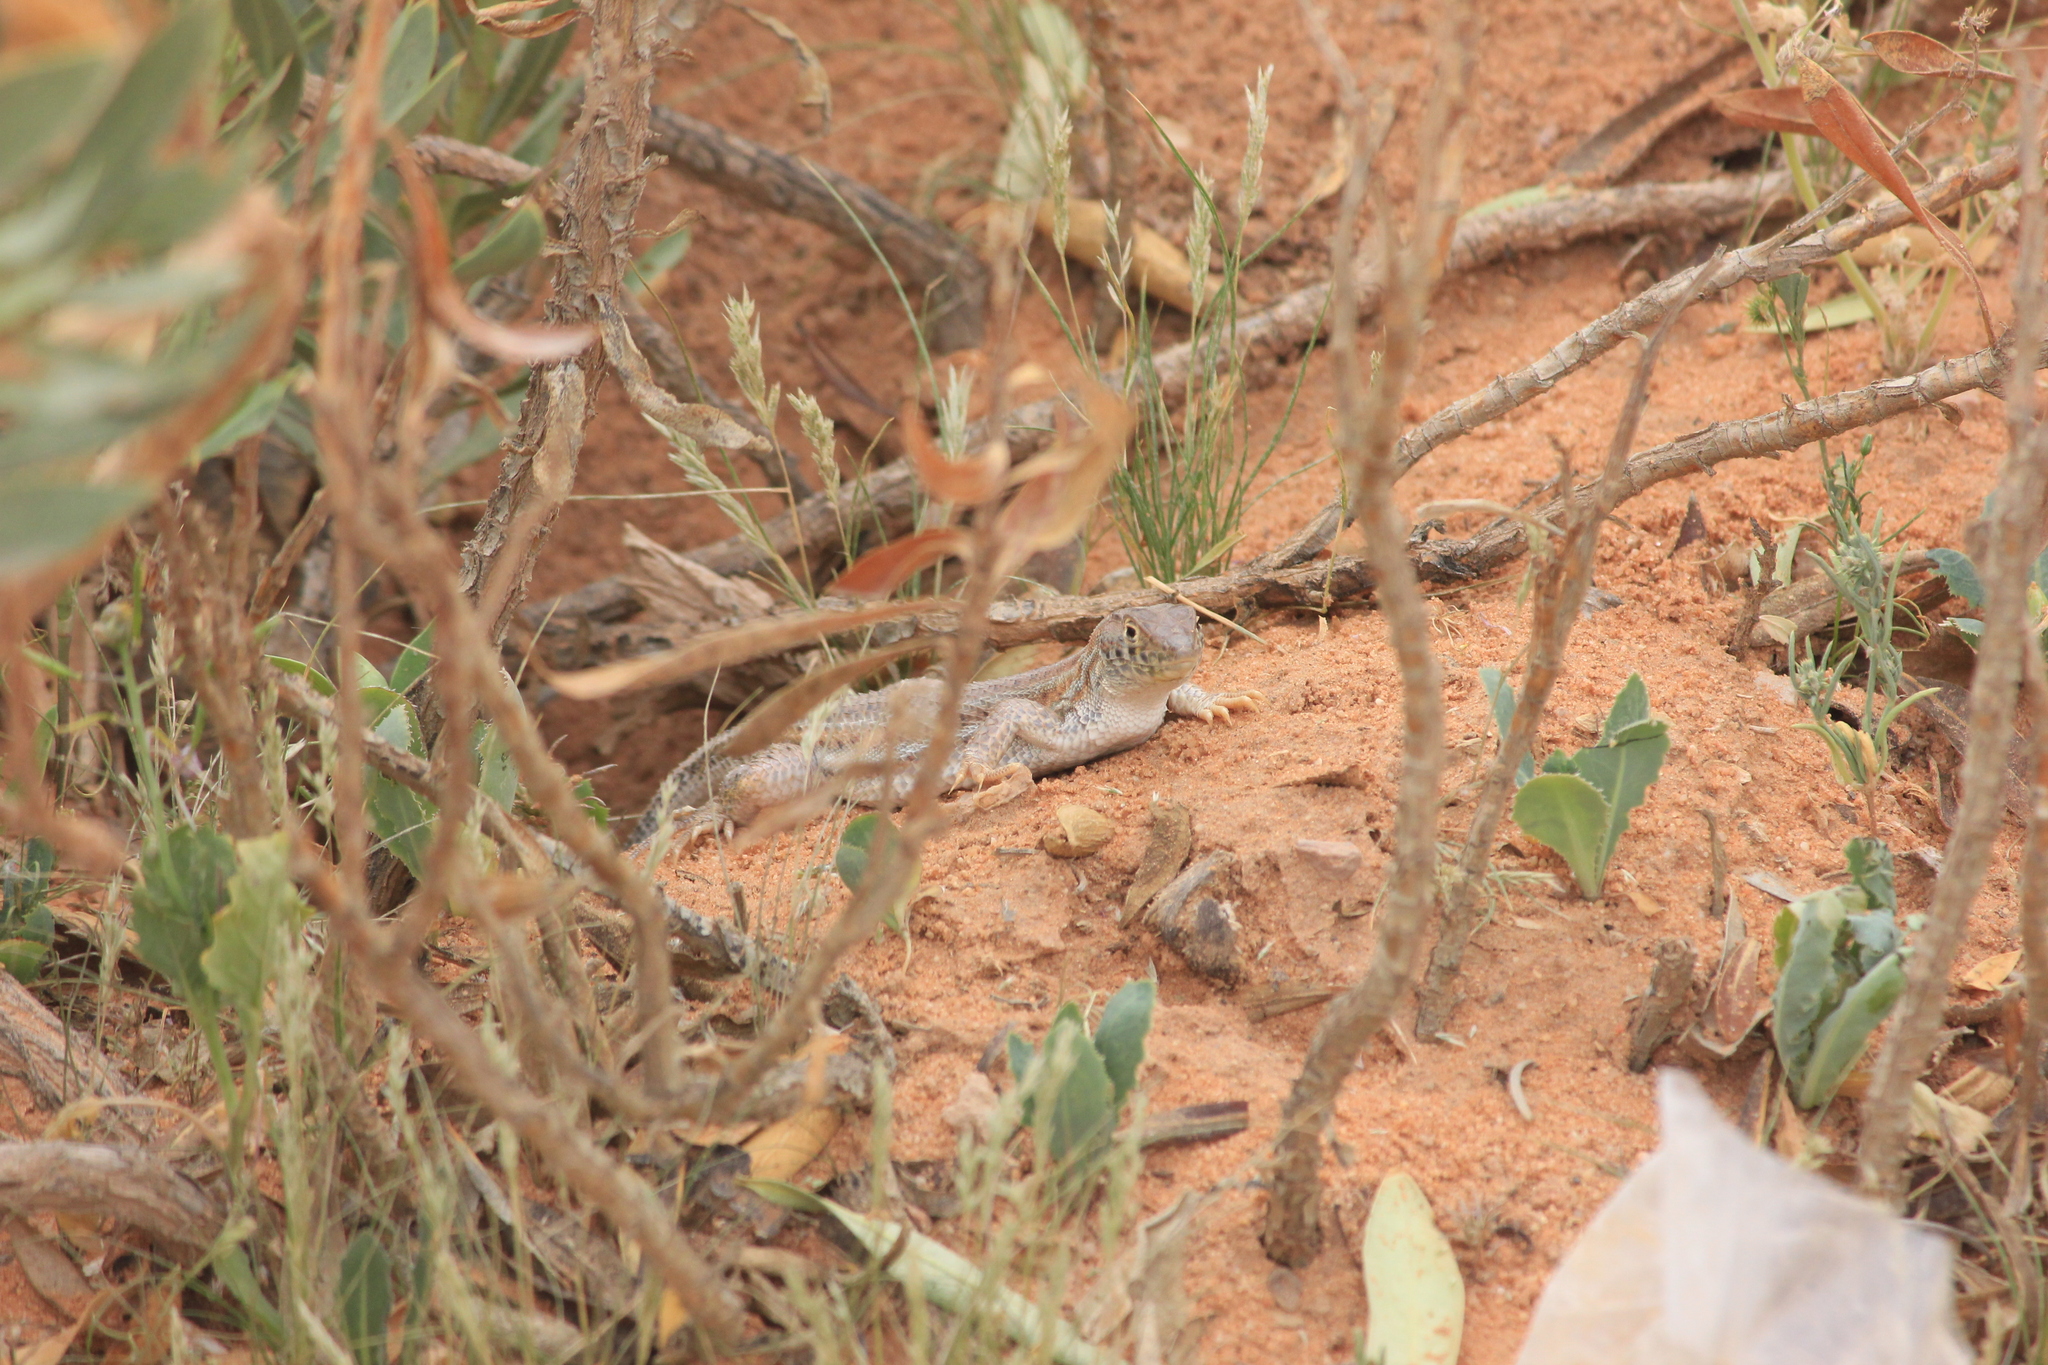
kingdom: Animalia
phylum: Chordata
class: Squamata
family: Lacertidae
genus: Acanthodactylus
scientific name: Acanthodactylus boskianus
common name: Bosc’s fringe-toed lizard
